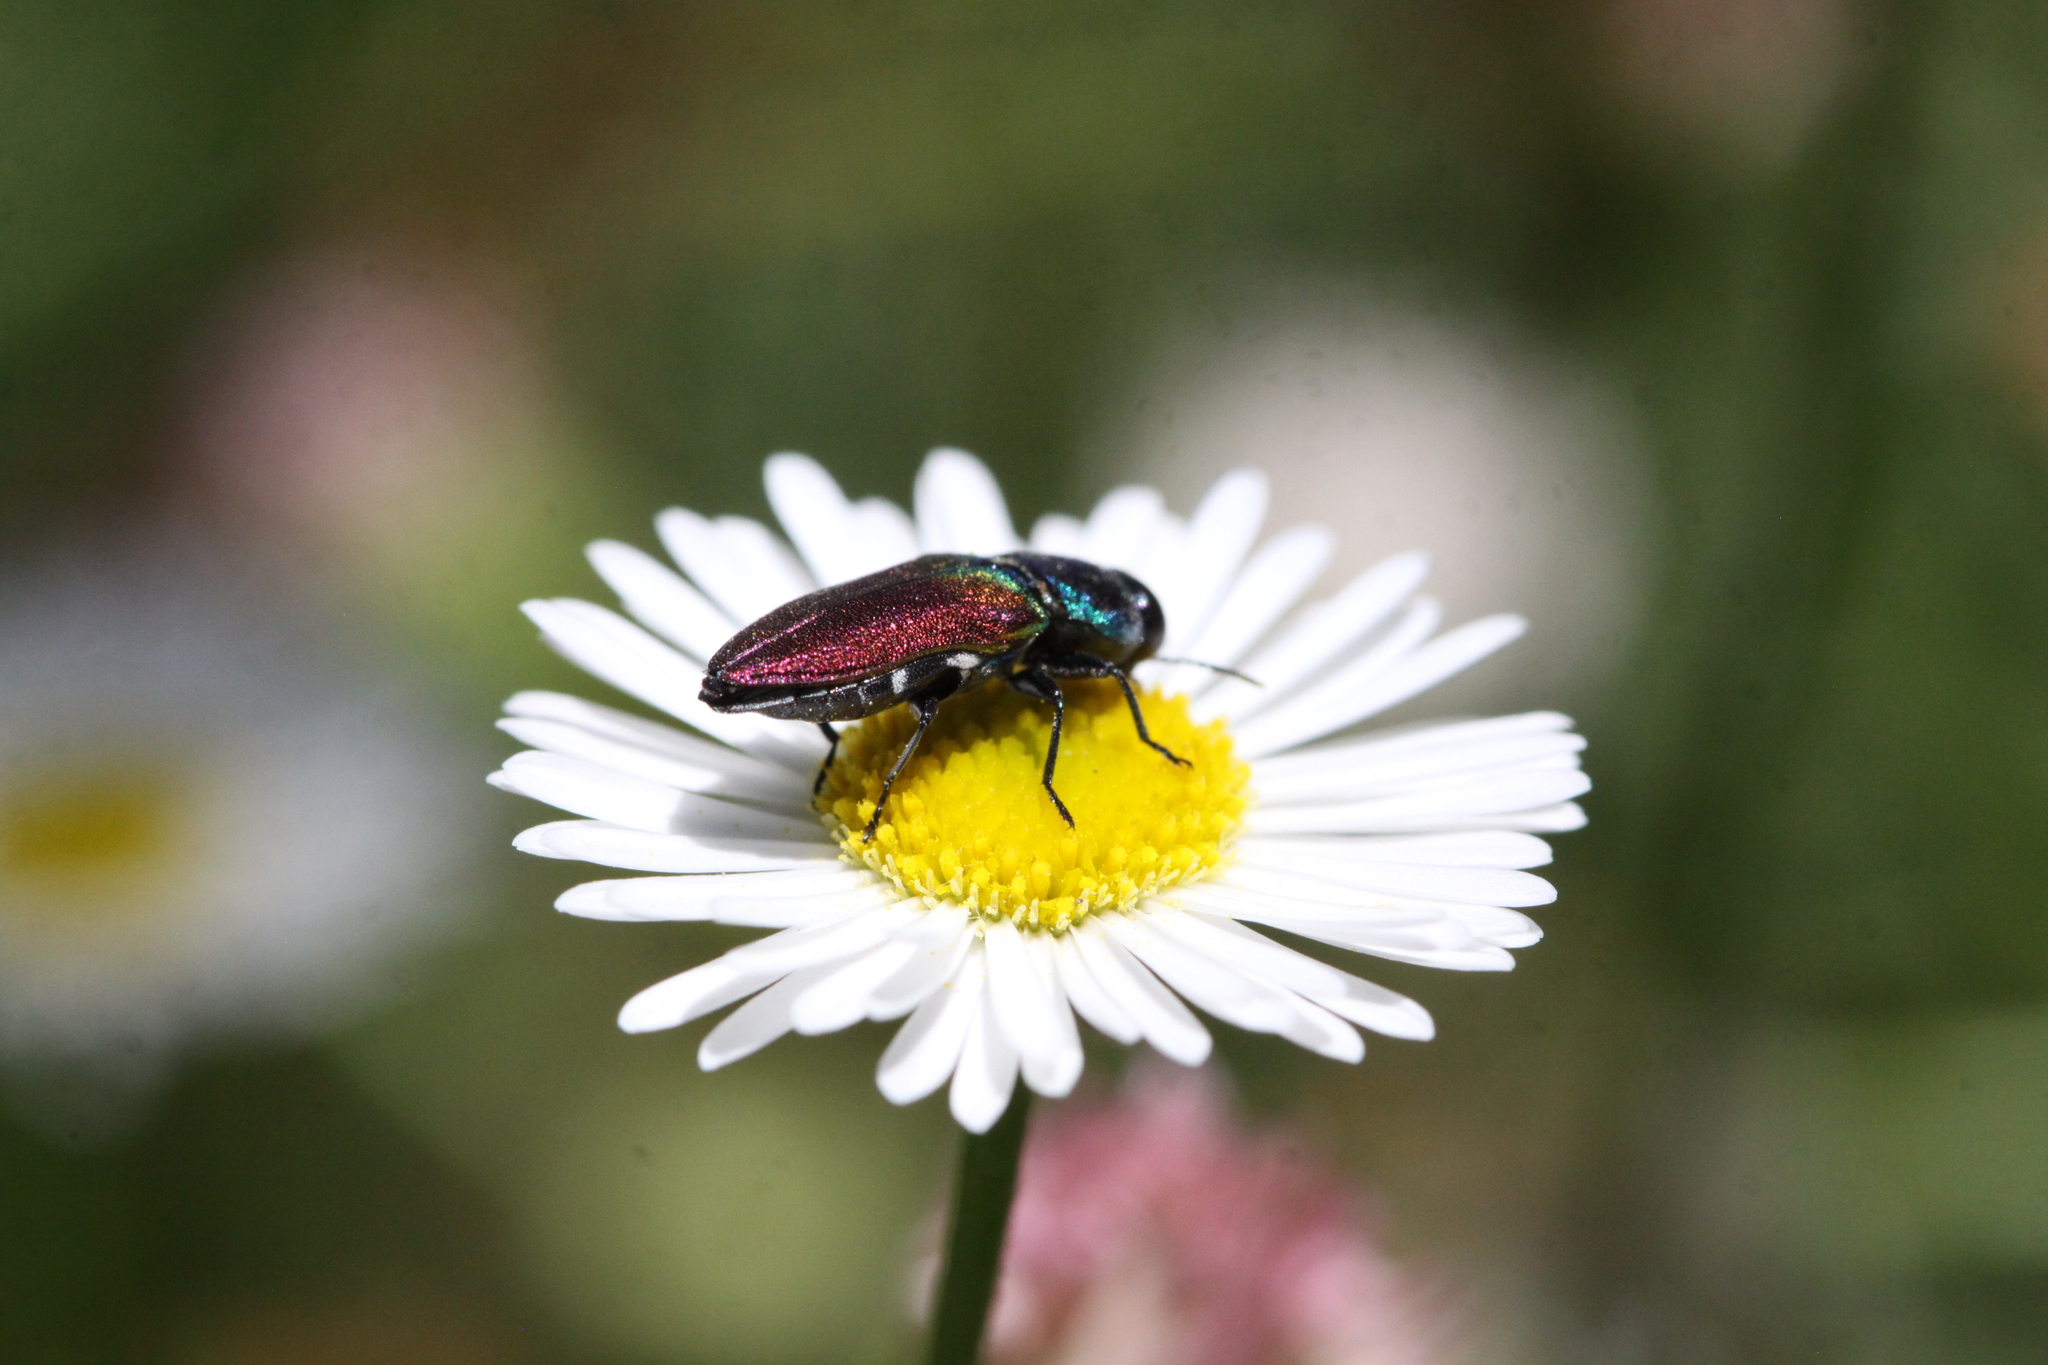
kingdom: Animalia
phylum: Arthropoda
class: Insecta
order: Coleoptera
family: Buprestidae
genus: Anthaxia
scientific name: Anthaxia ignipennis
